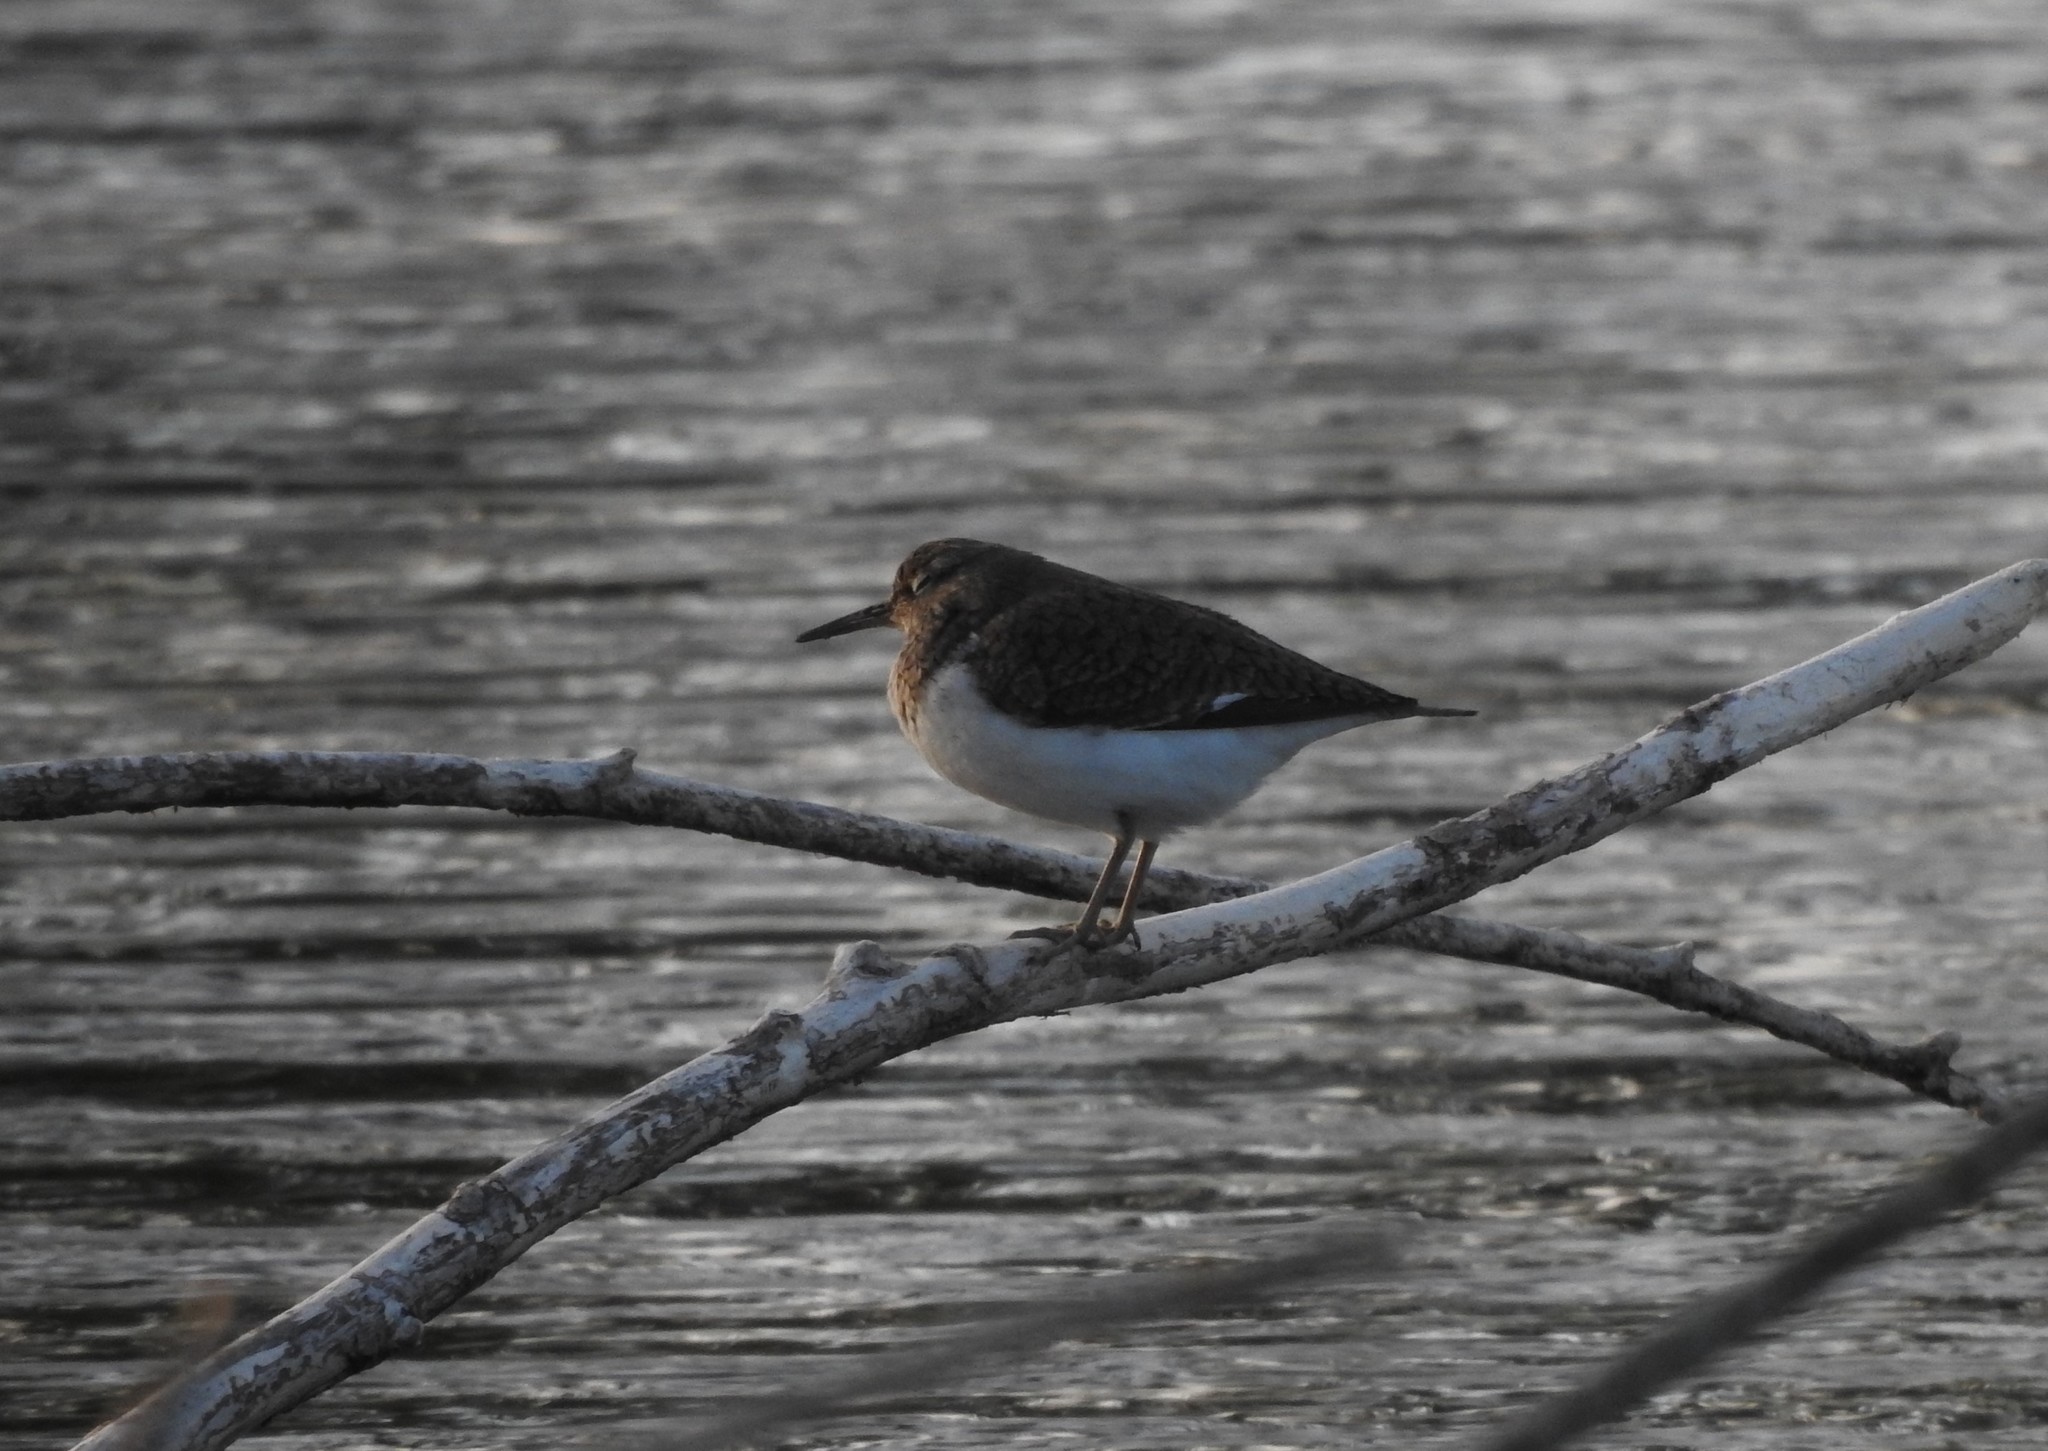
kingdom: Animalia
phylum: Chordata
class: Aves
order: Charadriiformes
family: Scolopacidae
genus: Actitis
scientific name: Actitis hypoleucos
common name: Common sandpiper
